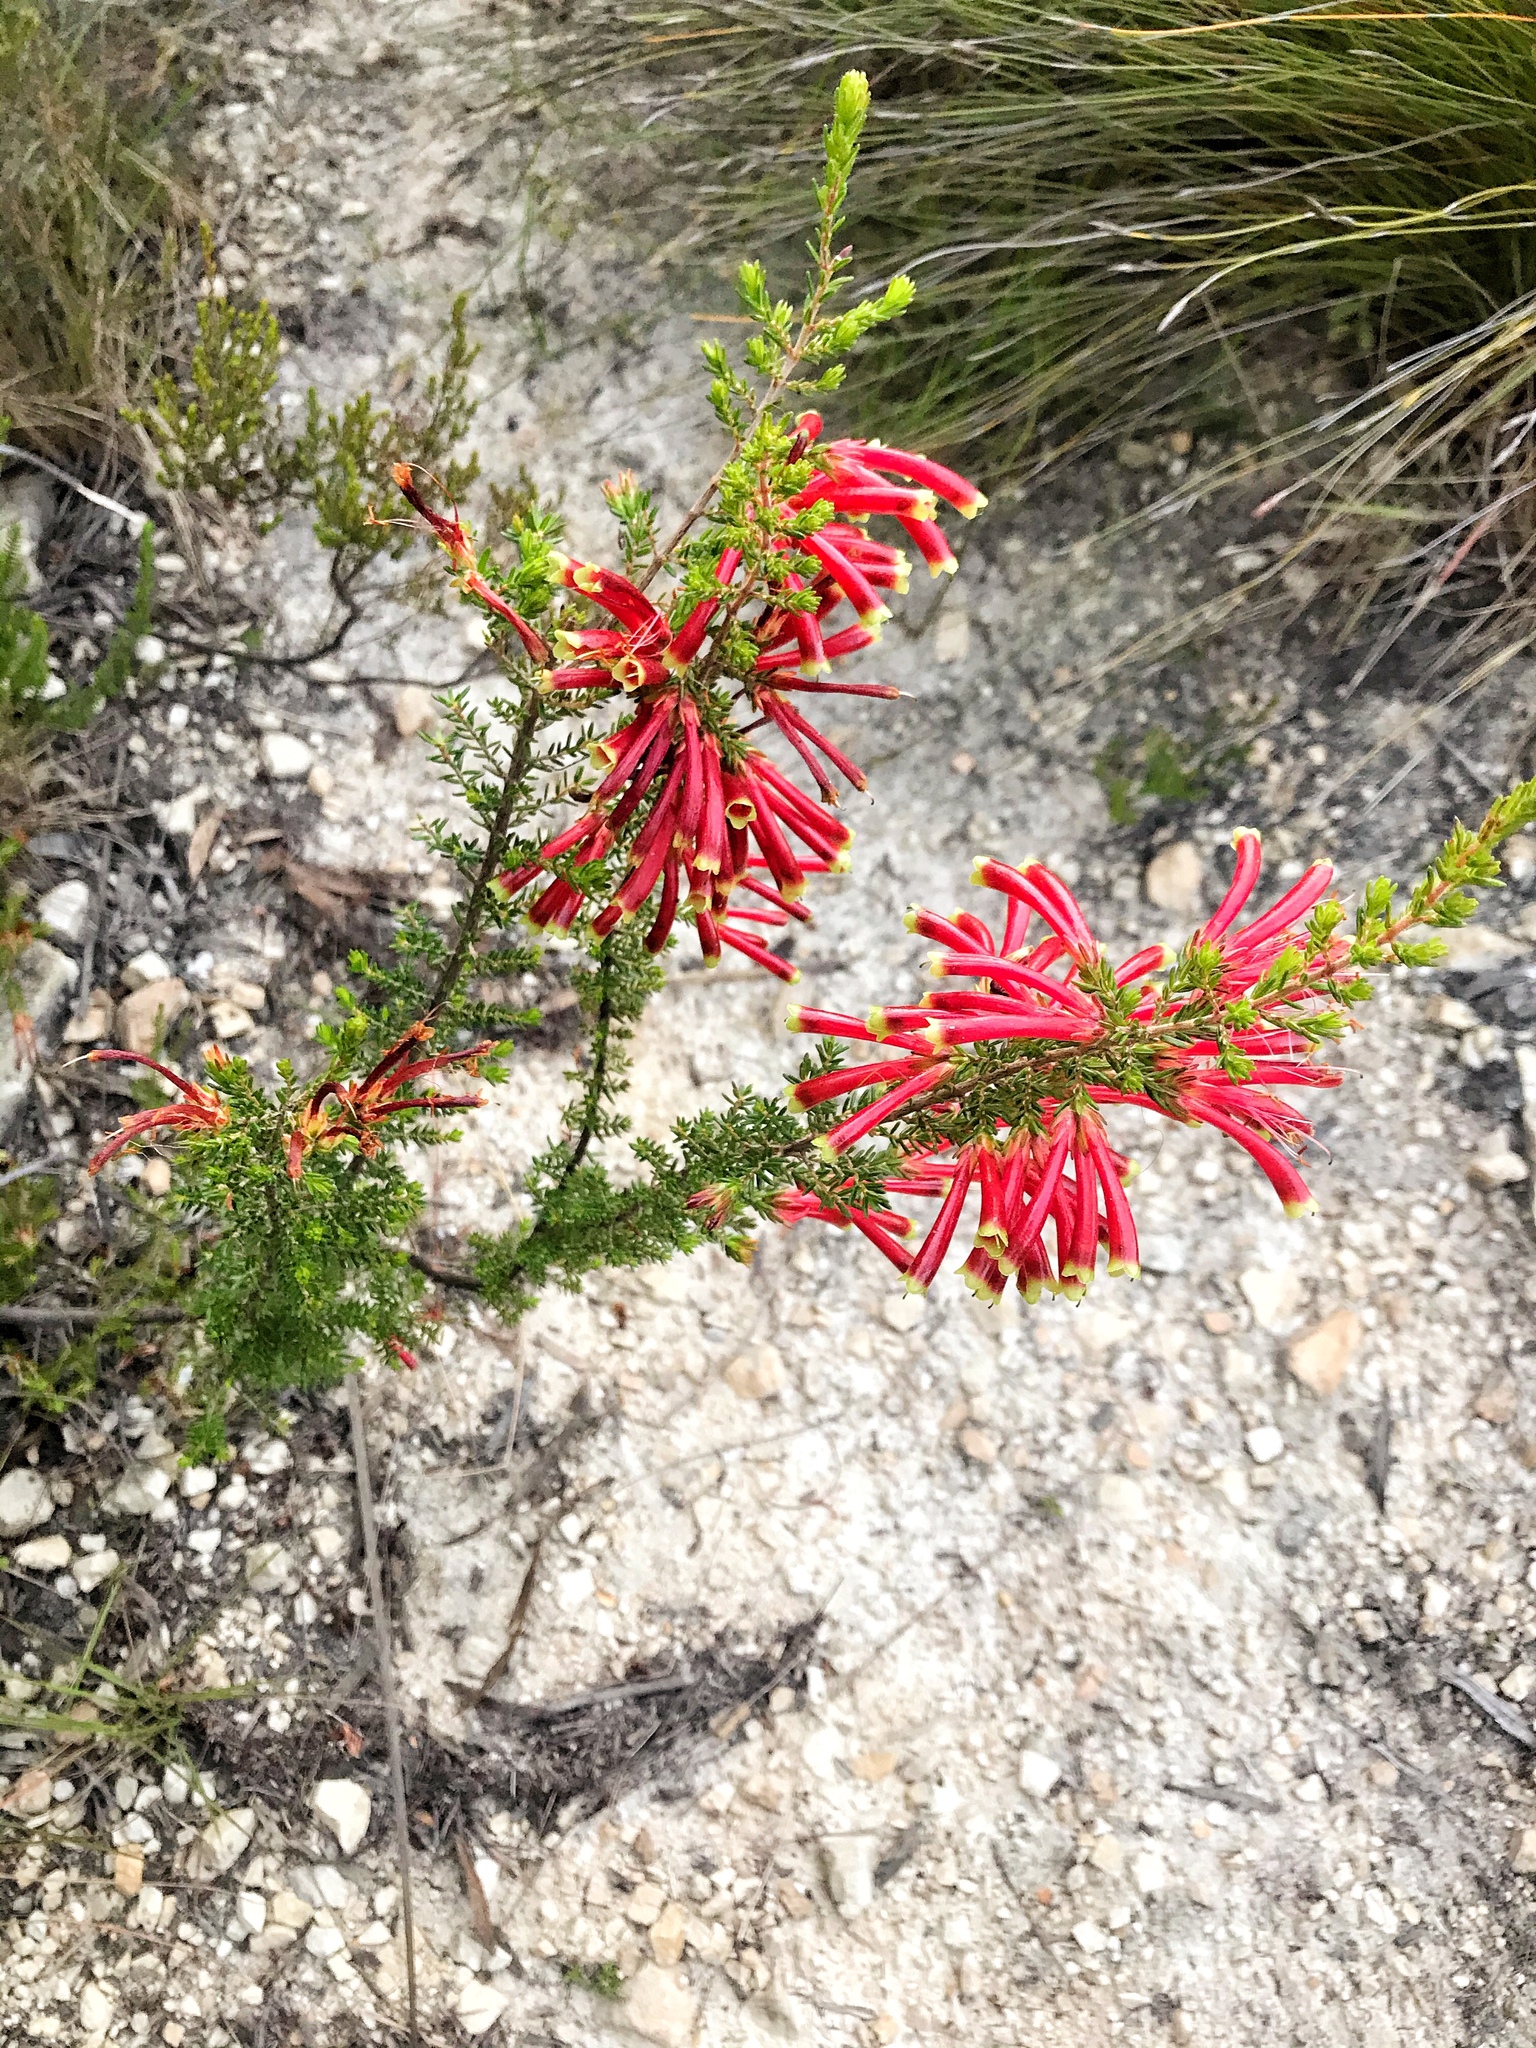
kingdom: Plantae
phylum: Tracheophyta
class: Magnoliopsida
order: Ericales
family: Ericaceae
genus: Erica
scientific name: Erica discolor
